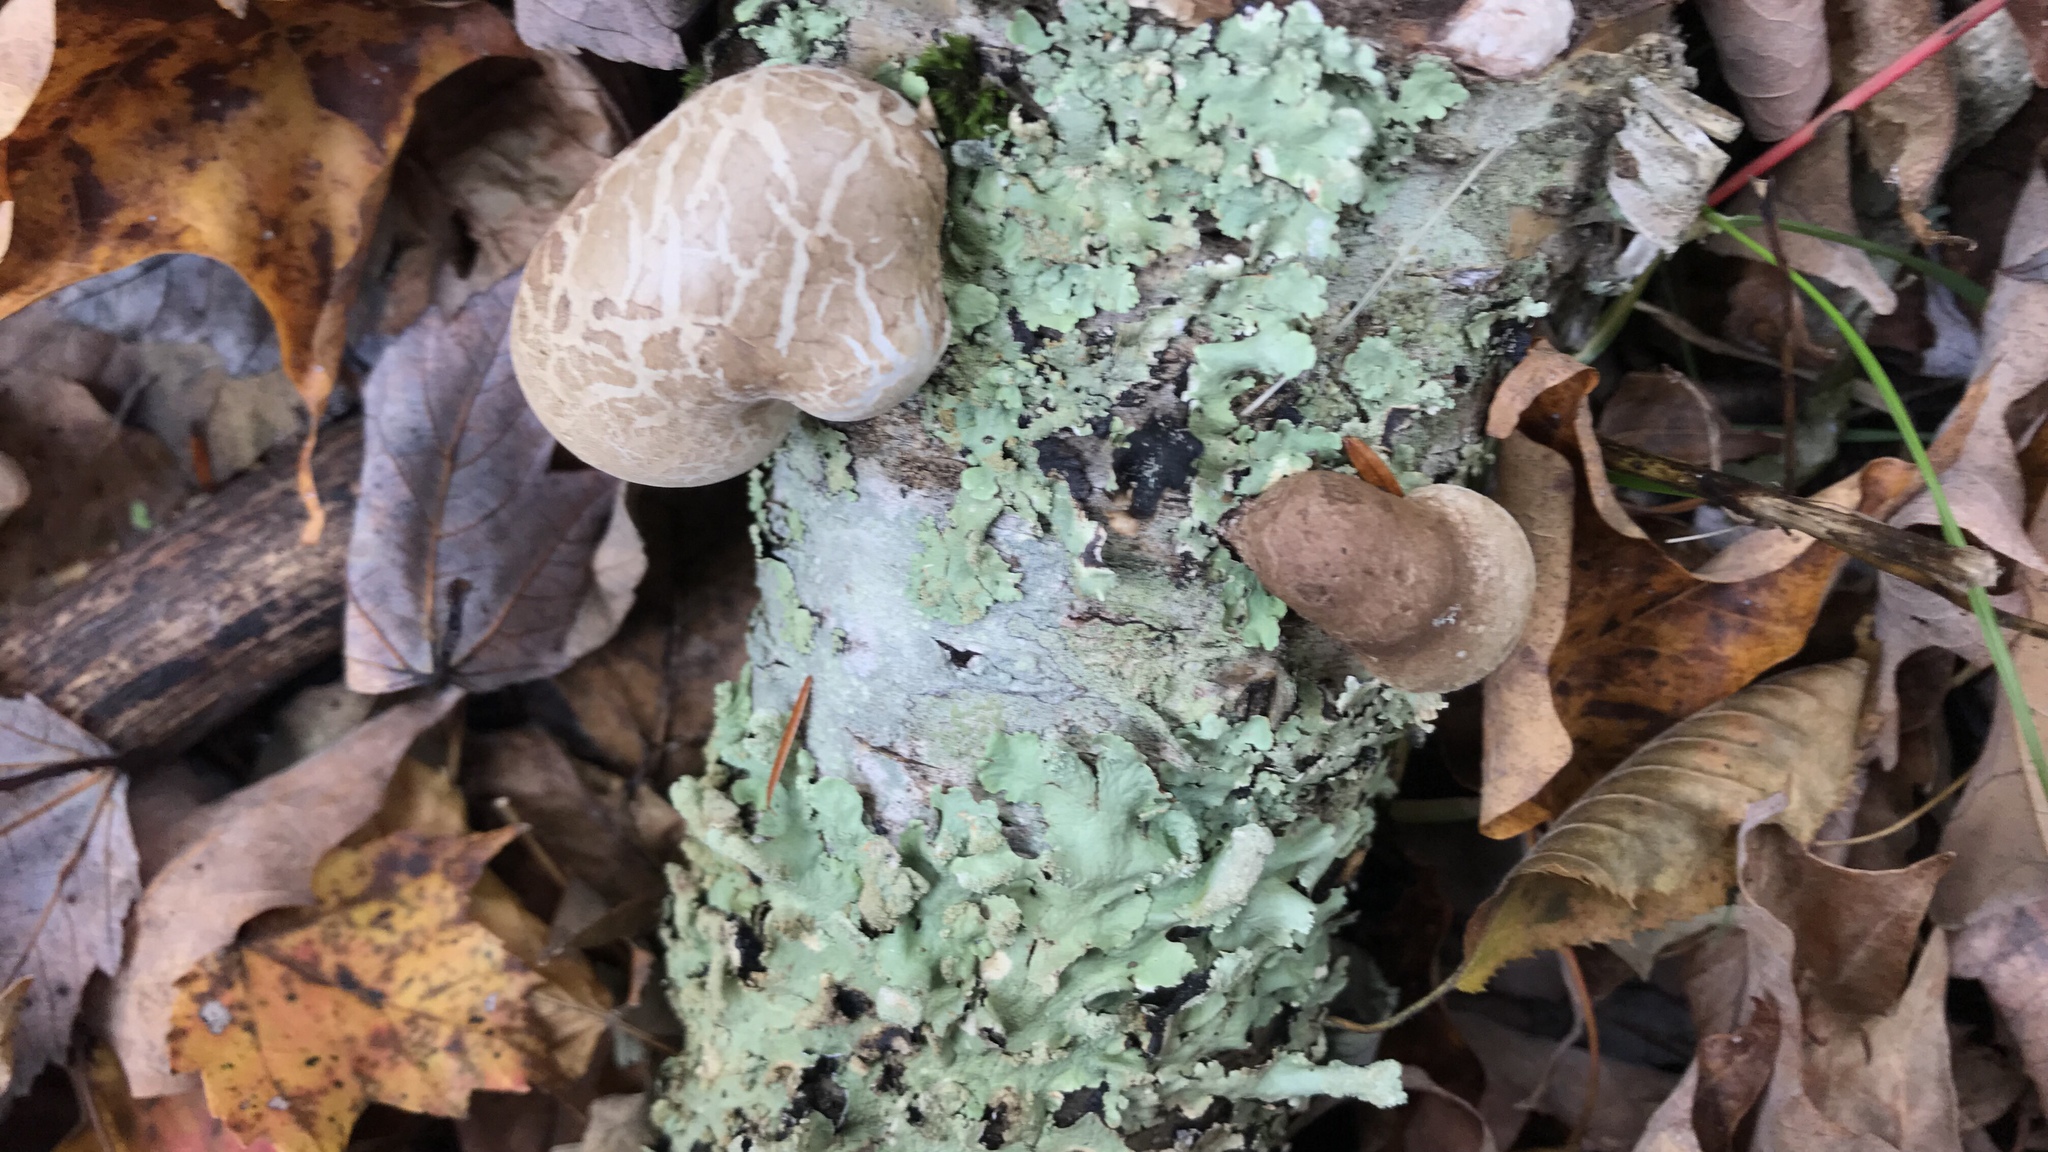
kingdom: Fungi
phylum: Basidiomycota
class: Agaricomycetes
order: Polyporales
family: Fomitopsidaceae
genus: Fomitopsis
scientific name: Fomitopsis betulina
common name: Birch polypore
